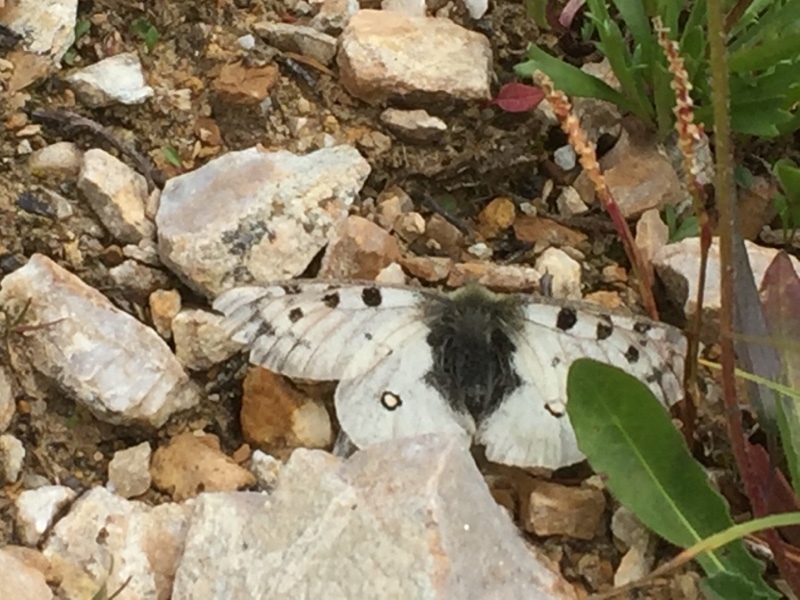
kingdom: Animalia
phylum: Arthropoda
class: Insecta
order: Lepidoptera
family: Papilionidae
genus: Parnassius
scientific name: Parnassius apollo
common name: Apollo
